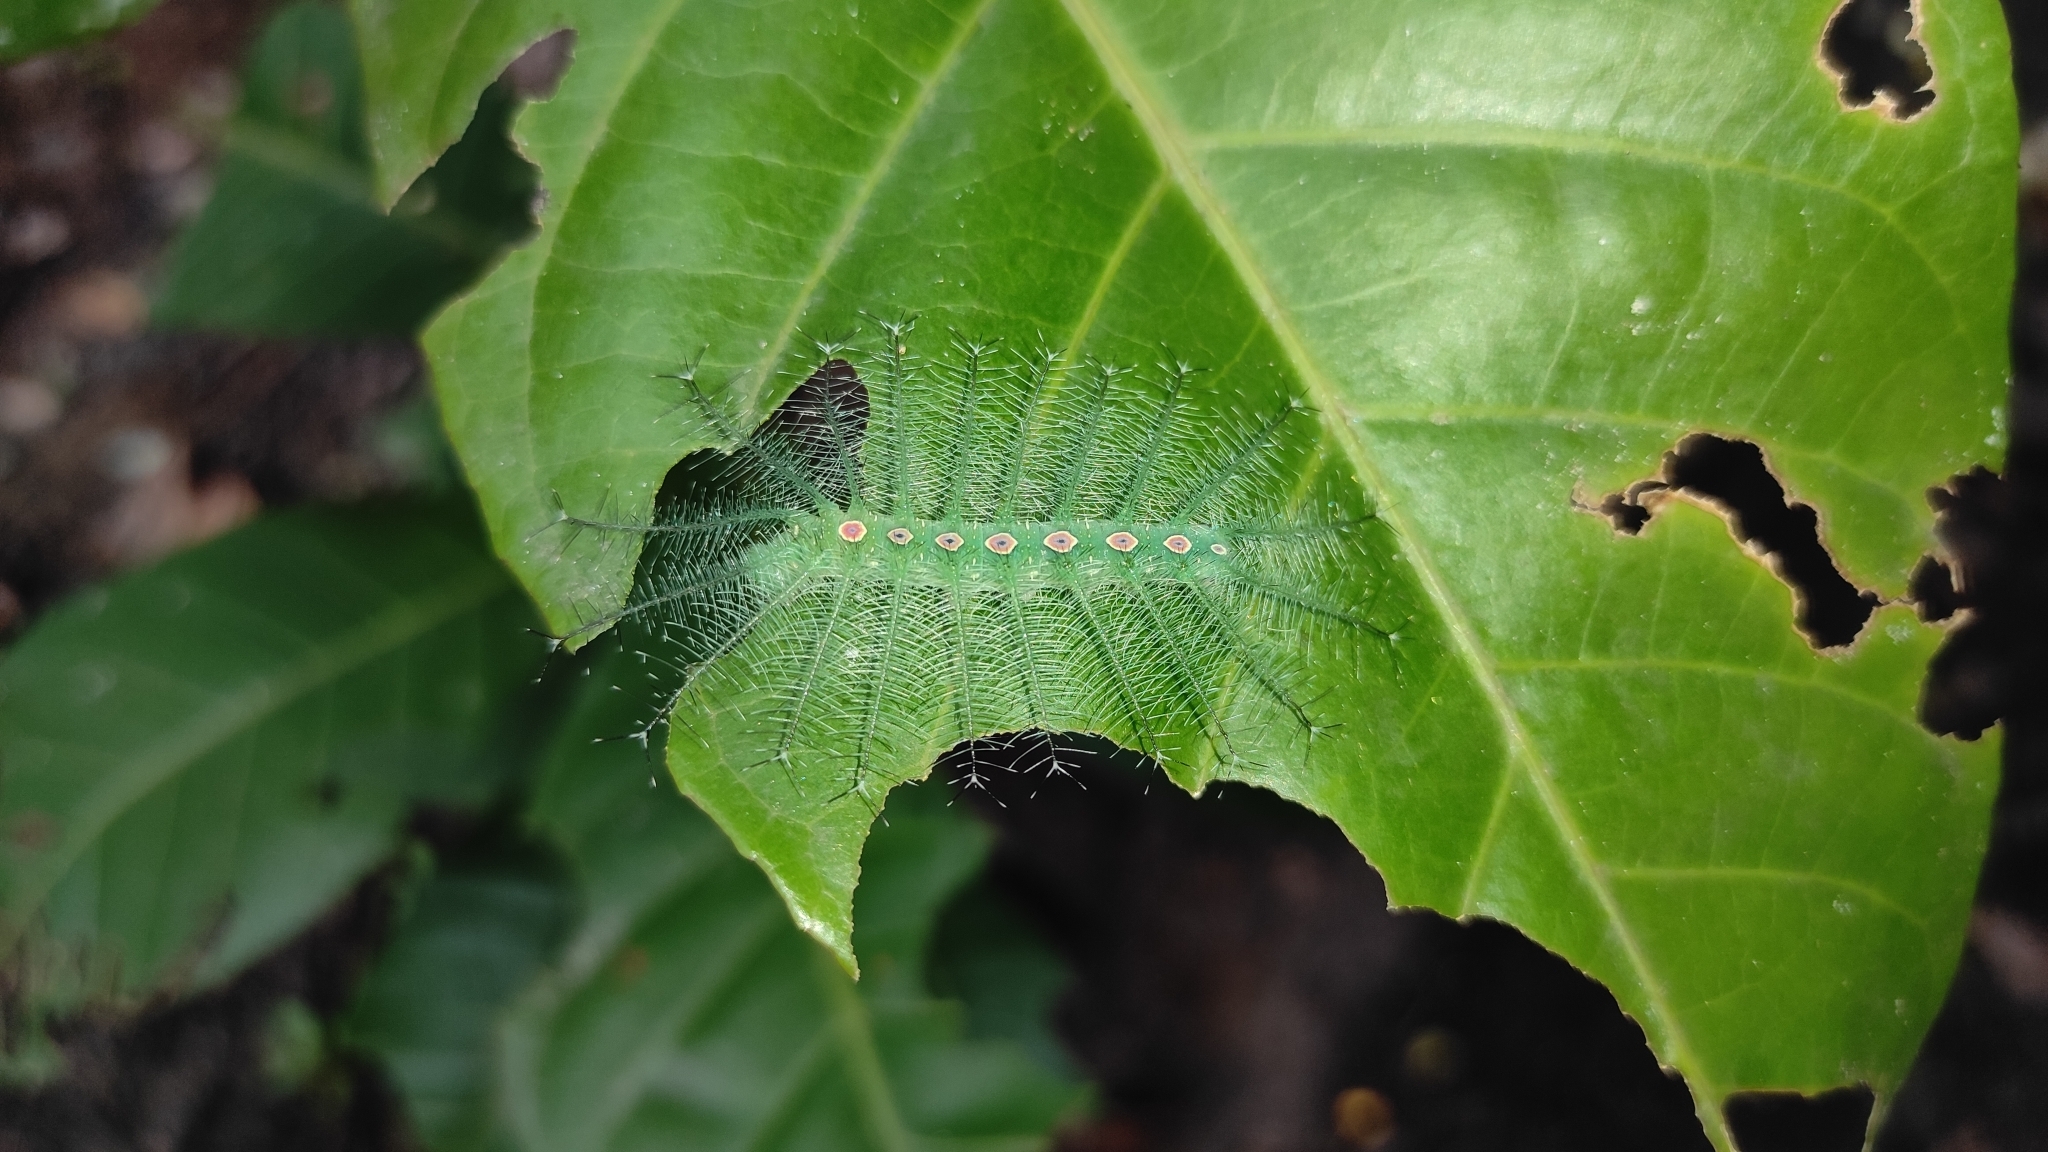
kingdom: Animalia
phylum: Arthropoda
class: Insecta
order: Lepidoptera
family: Nymphalidae
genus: Tanaecia
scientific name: Tanaecia lepidea
